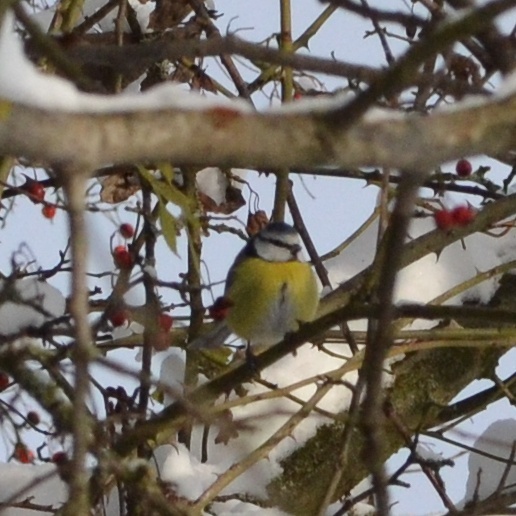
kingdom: Animalia
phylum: Chordata
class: Aves
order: Passeriformes
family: Paridae
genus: Cyanistes
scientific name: Cyanistes caeruleus
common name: Eurasian blue tit
